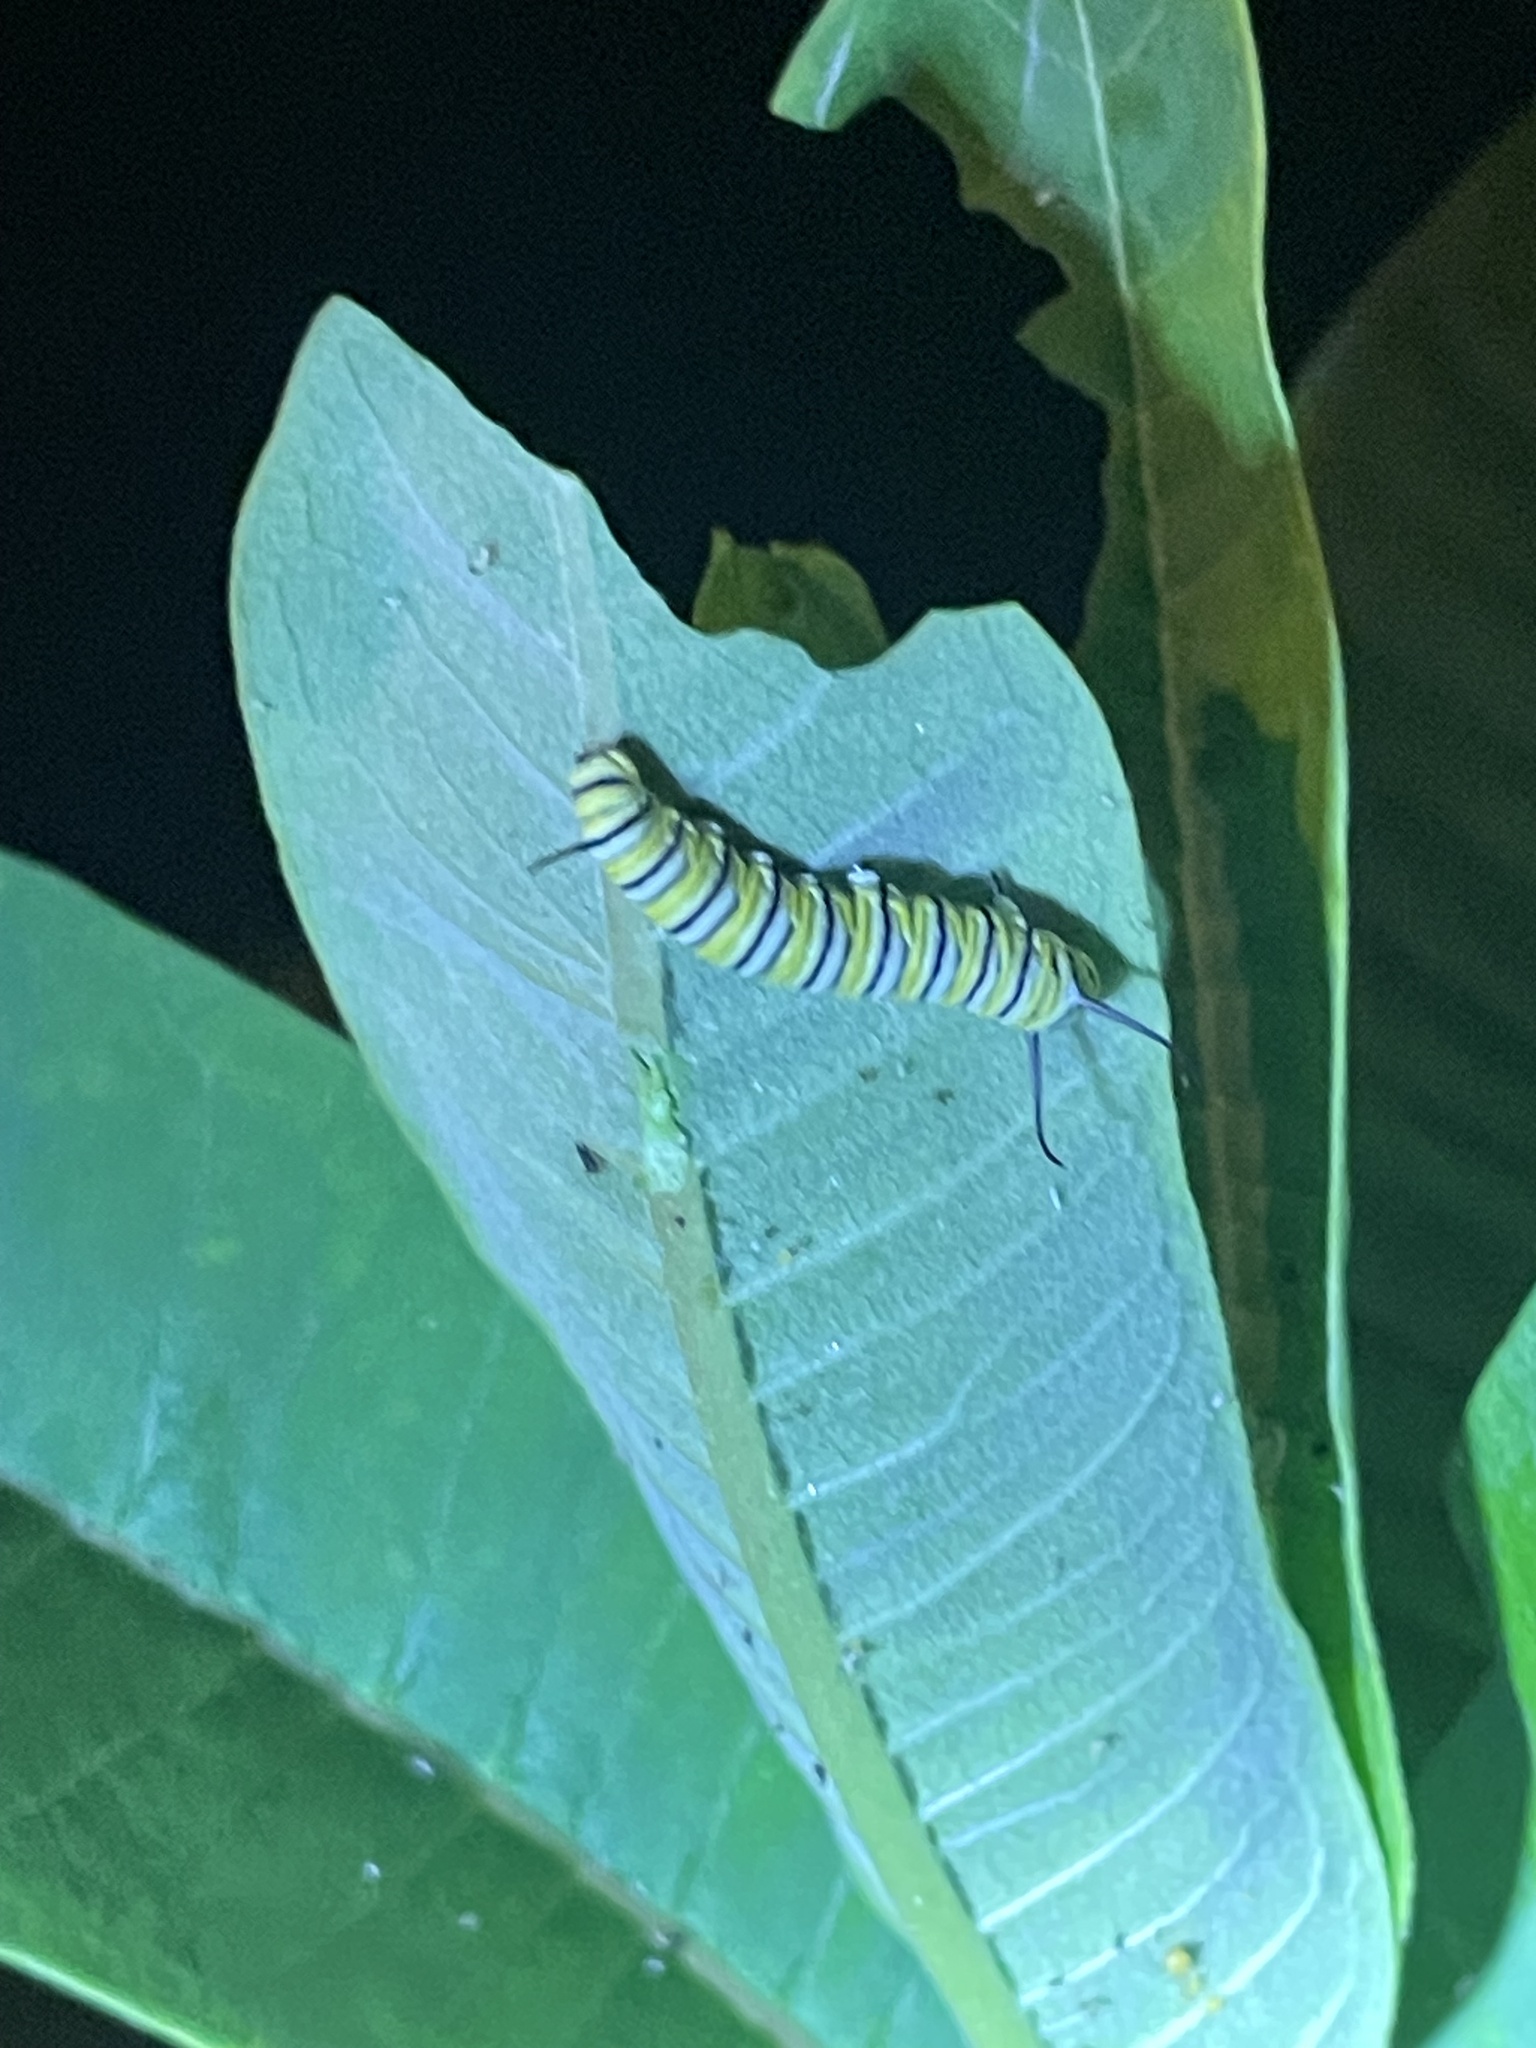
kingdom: Animalia
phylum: Arthropoda
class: Insecta
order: Lepidoptera
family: Nymphalidae
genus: Danaus
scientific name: Danaus plexippus
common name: Monarch
